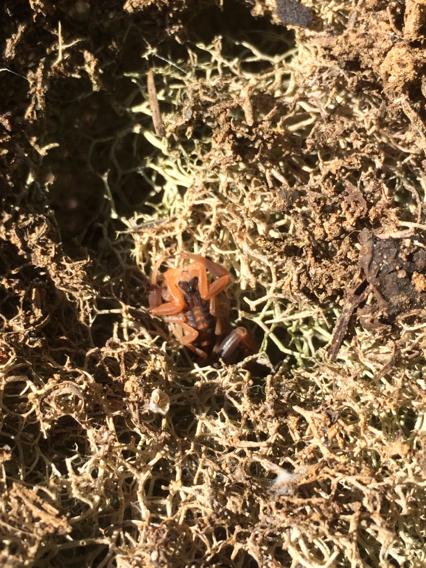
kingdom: Animalia
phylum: Arthropoda
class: Arachnida
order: Scorpiones
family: Buthidae
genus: Centruroides
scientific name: Centruroides vittatus
